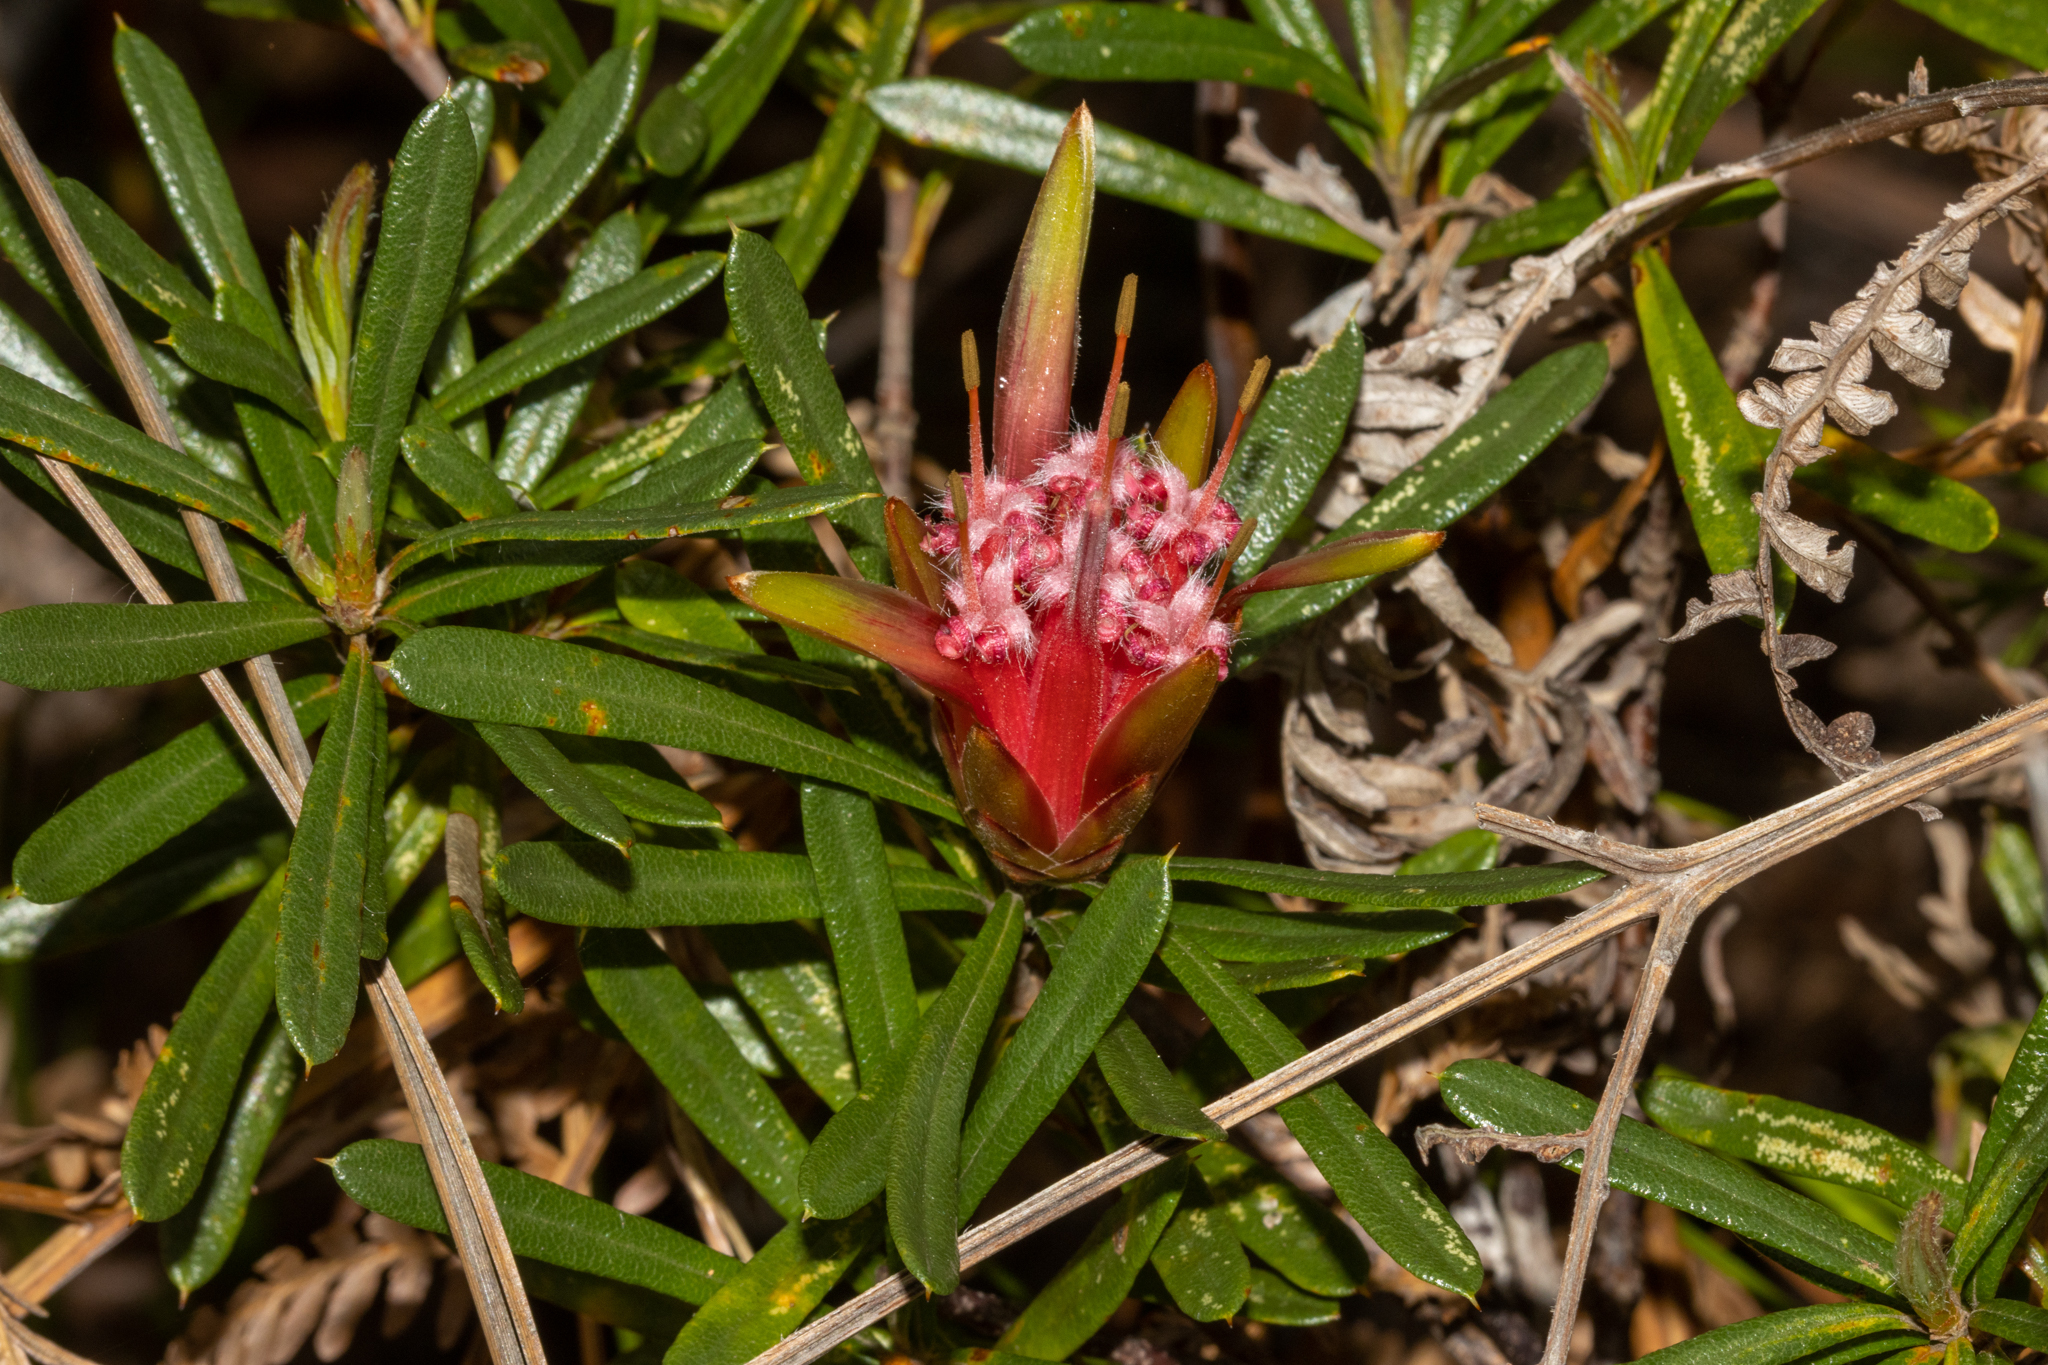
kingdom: Plantae
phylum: Tracheophyta
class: Magnoliopsida
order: Proteales
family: Proteaceae
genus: Lambertia
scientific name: Lambertia formosa
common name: Mountain-devil
